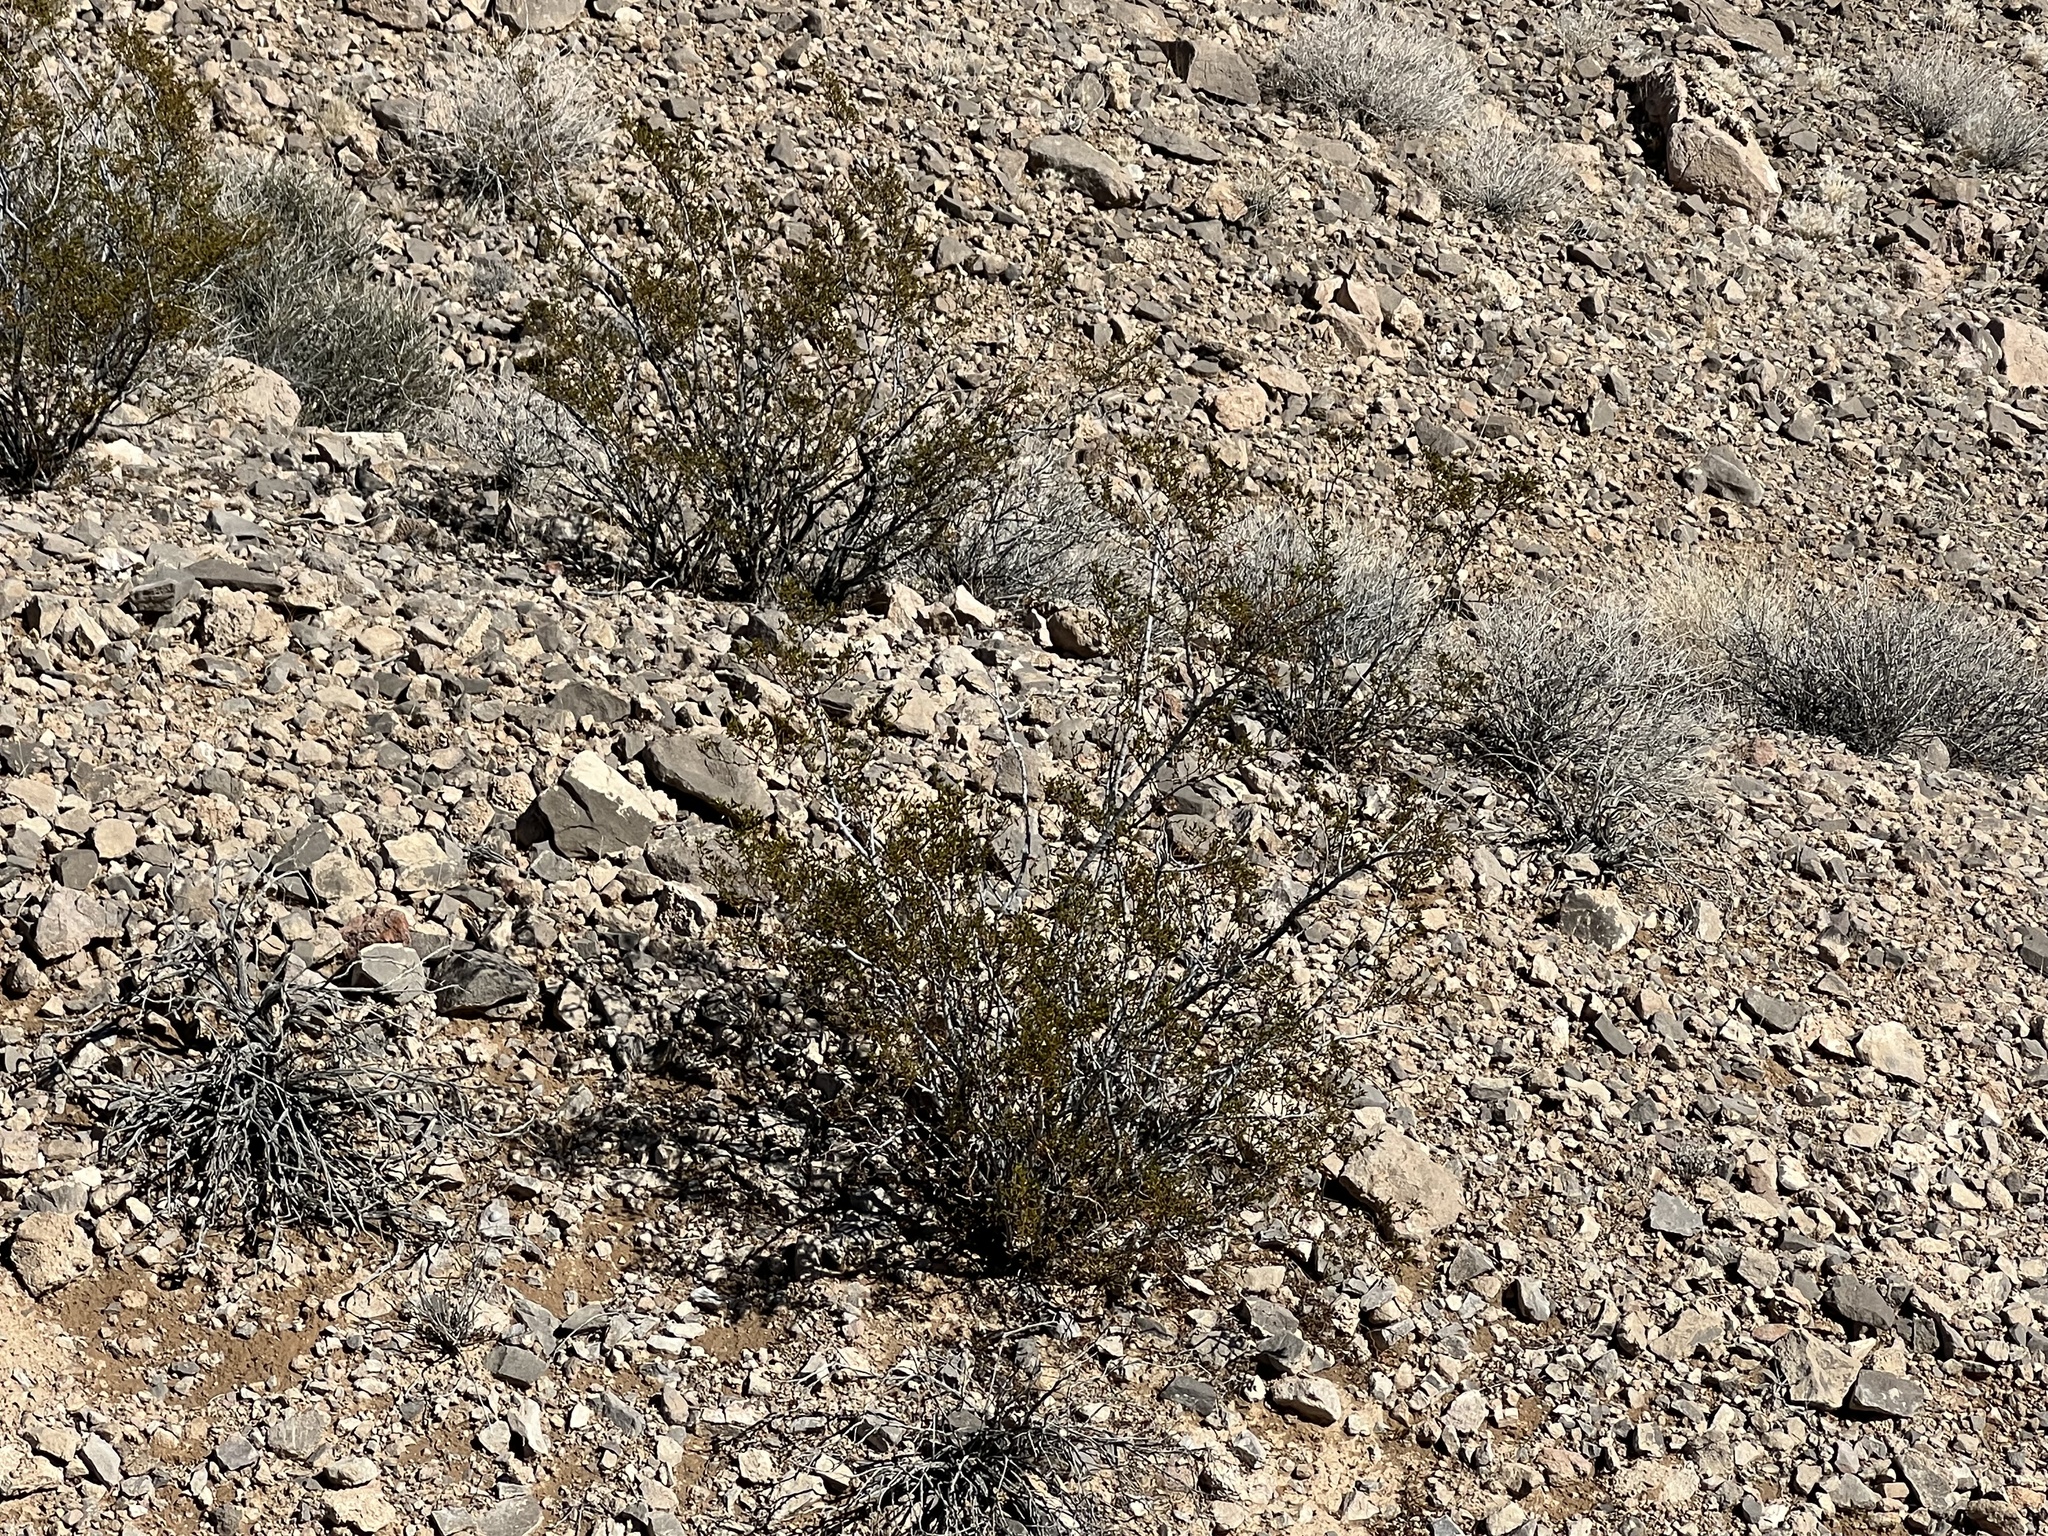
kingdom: Plantae
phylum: Tracheophyta
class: Magnoliopsida
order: Zygophyllales
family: Zygophyllaceae
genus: Larrea
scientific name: Larrea tridentata
